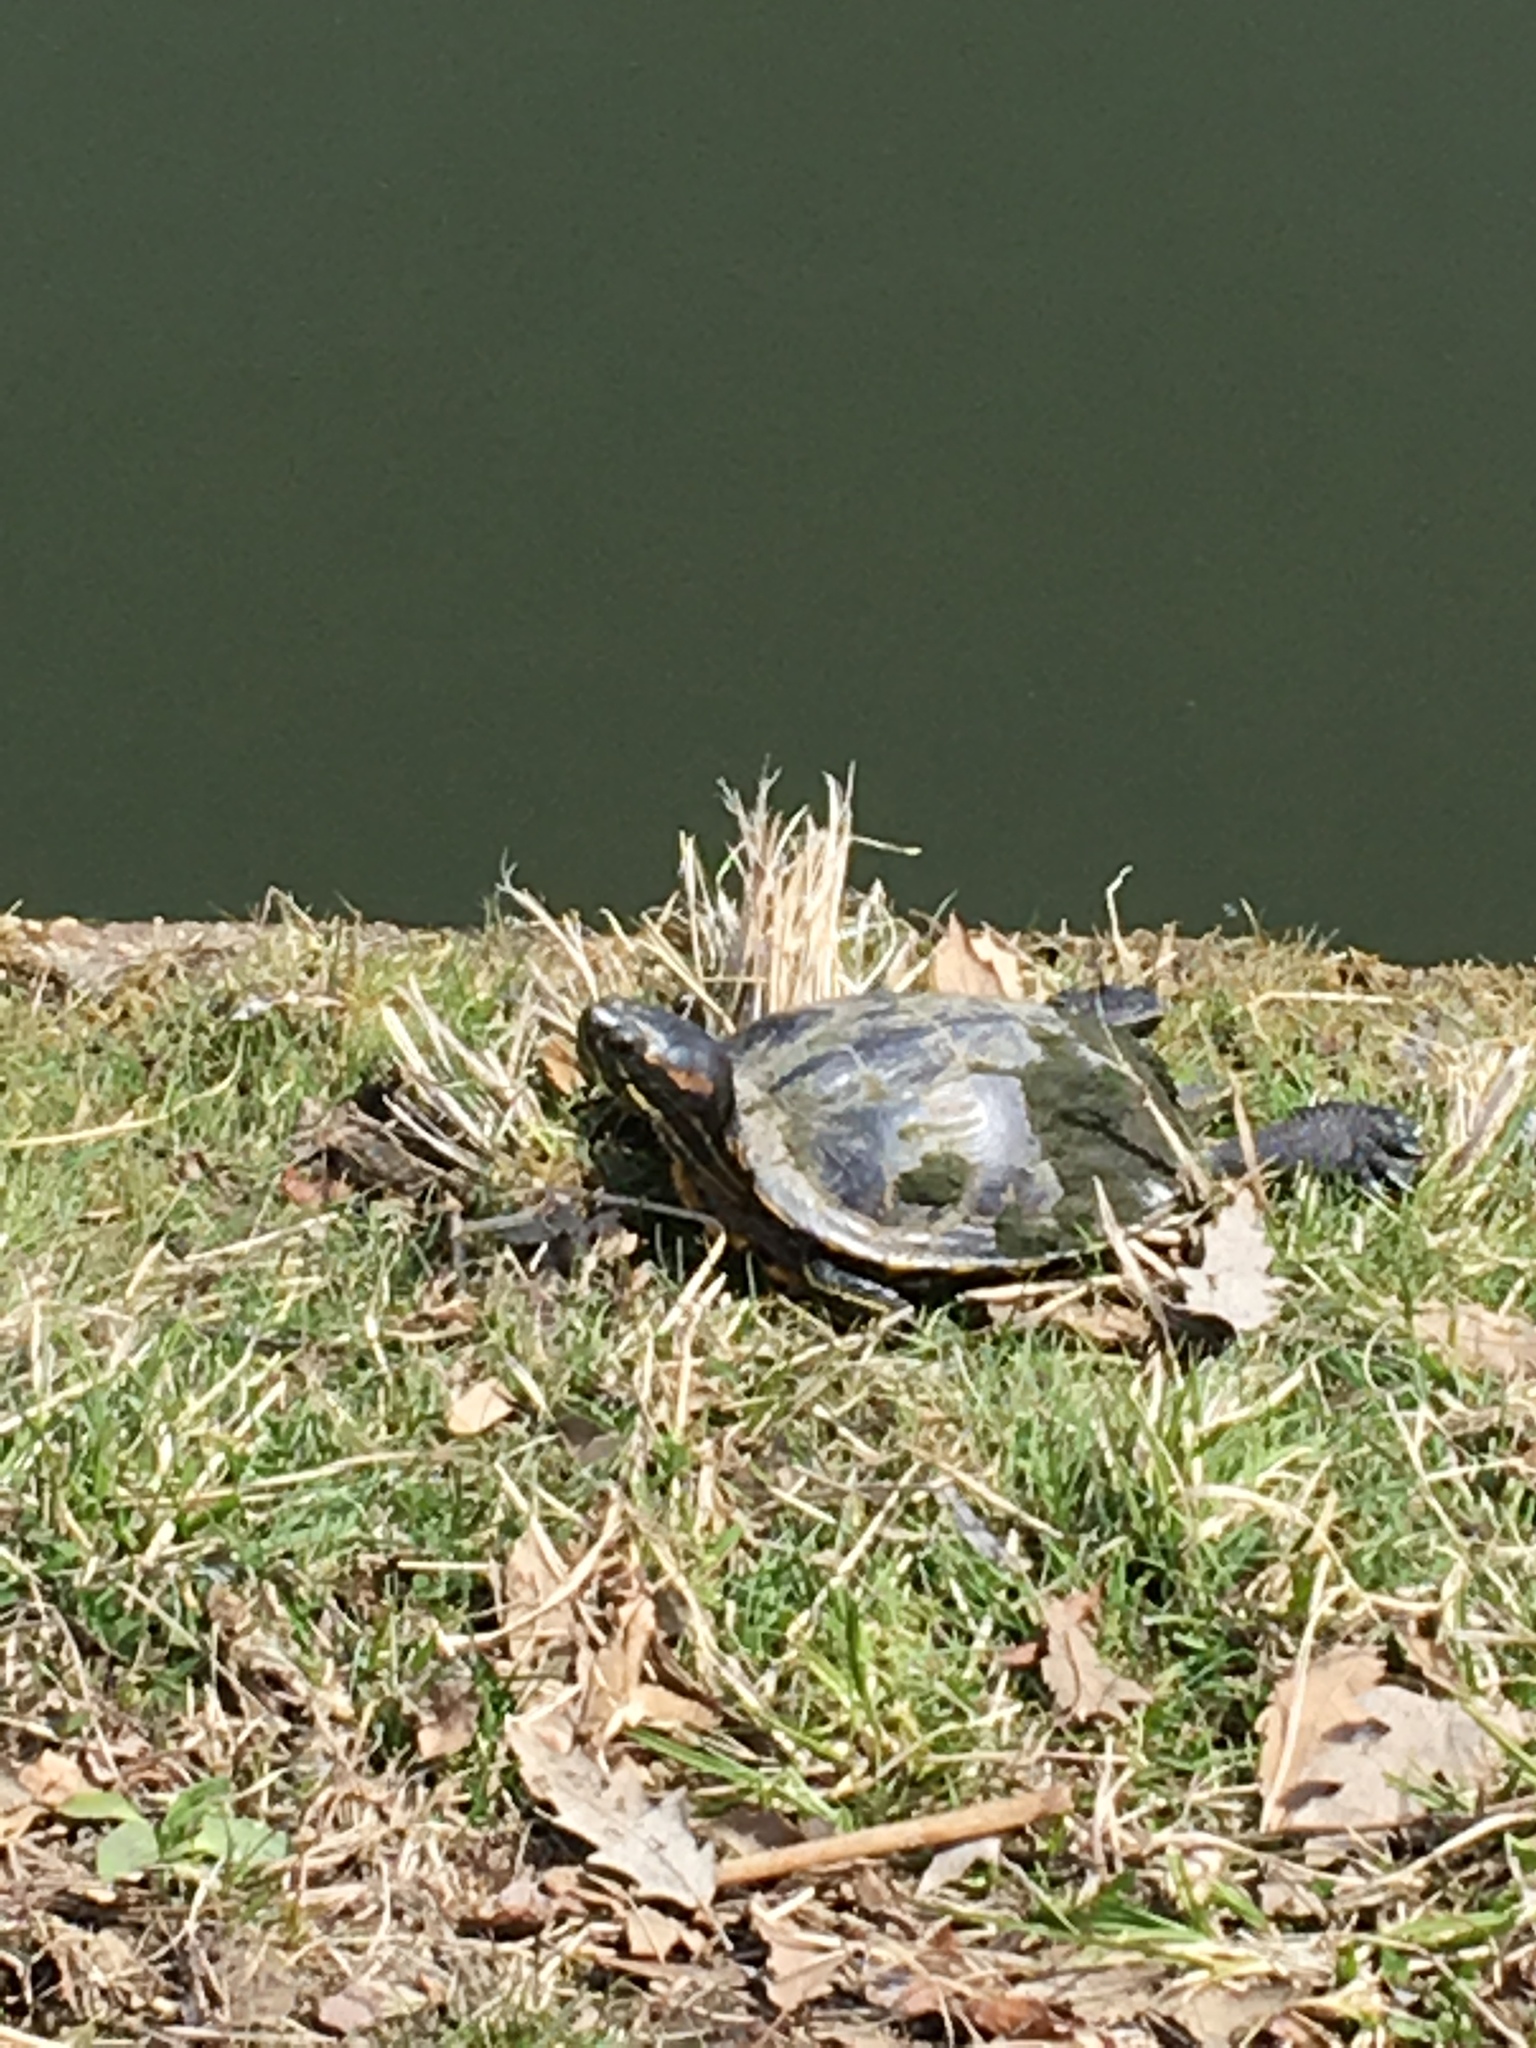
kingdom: Animalia
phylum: Chordata
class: Testudines
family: Emydidae
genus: Trachemys
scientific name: Trachemys scripta
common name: Slider
